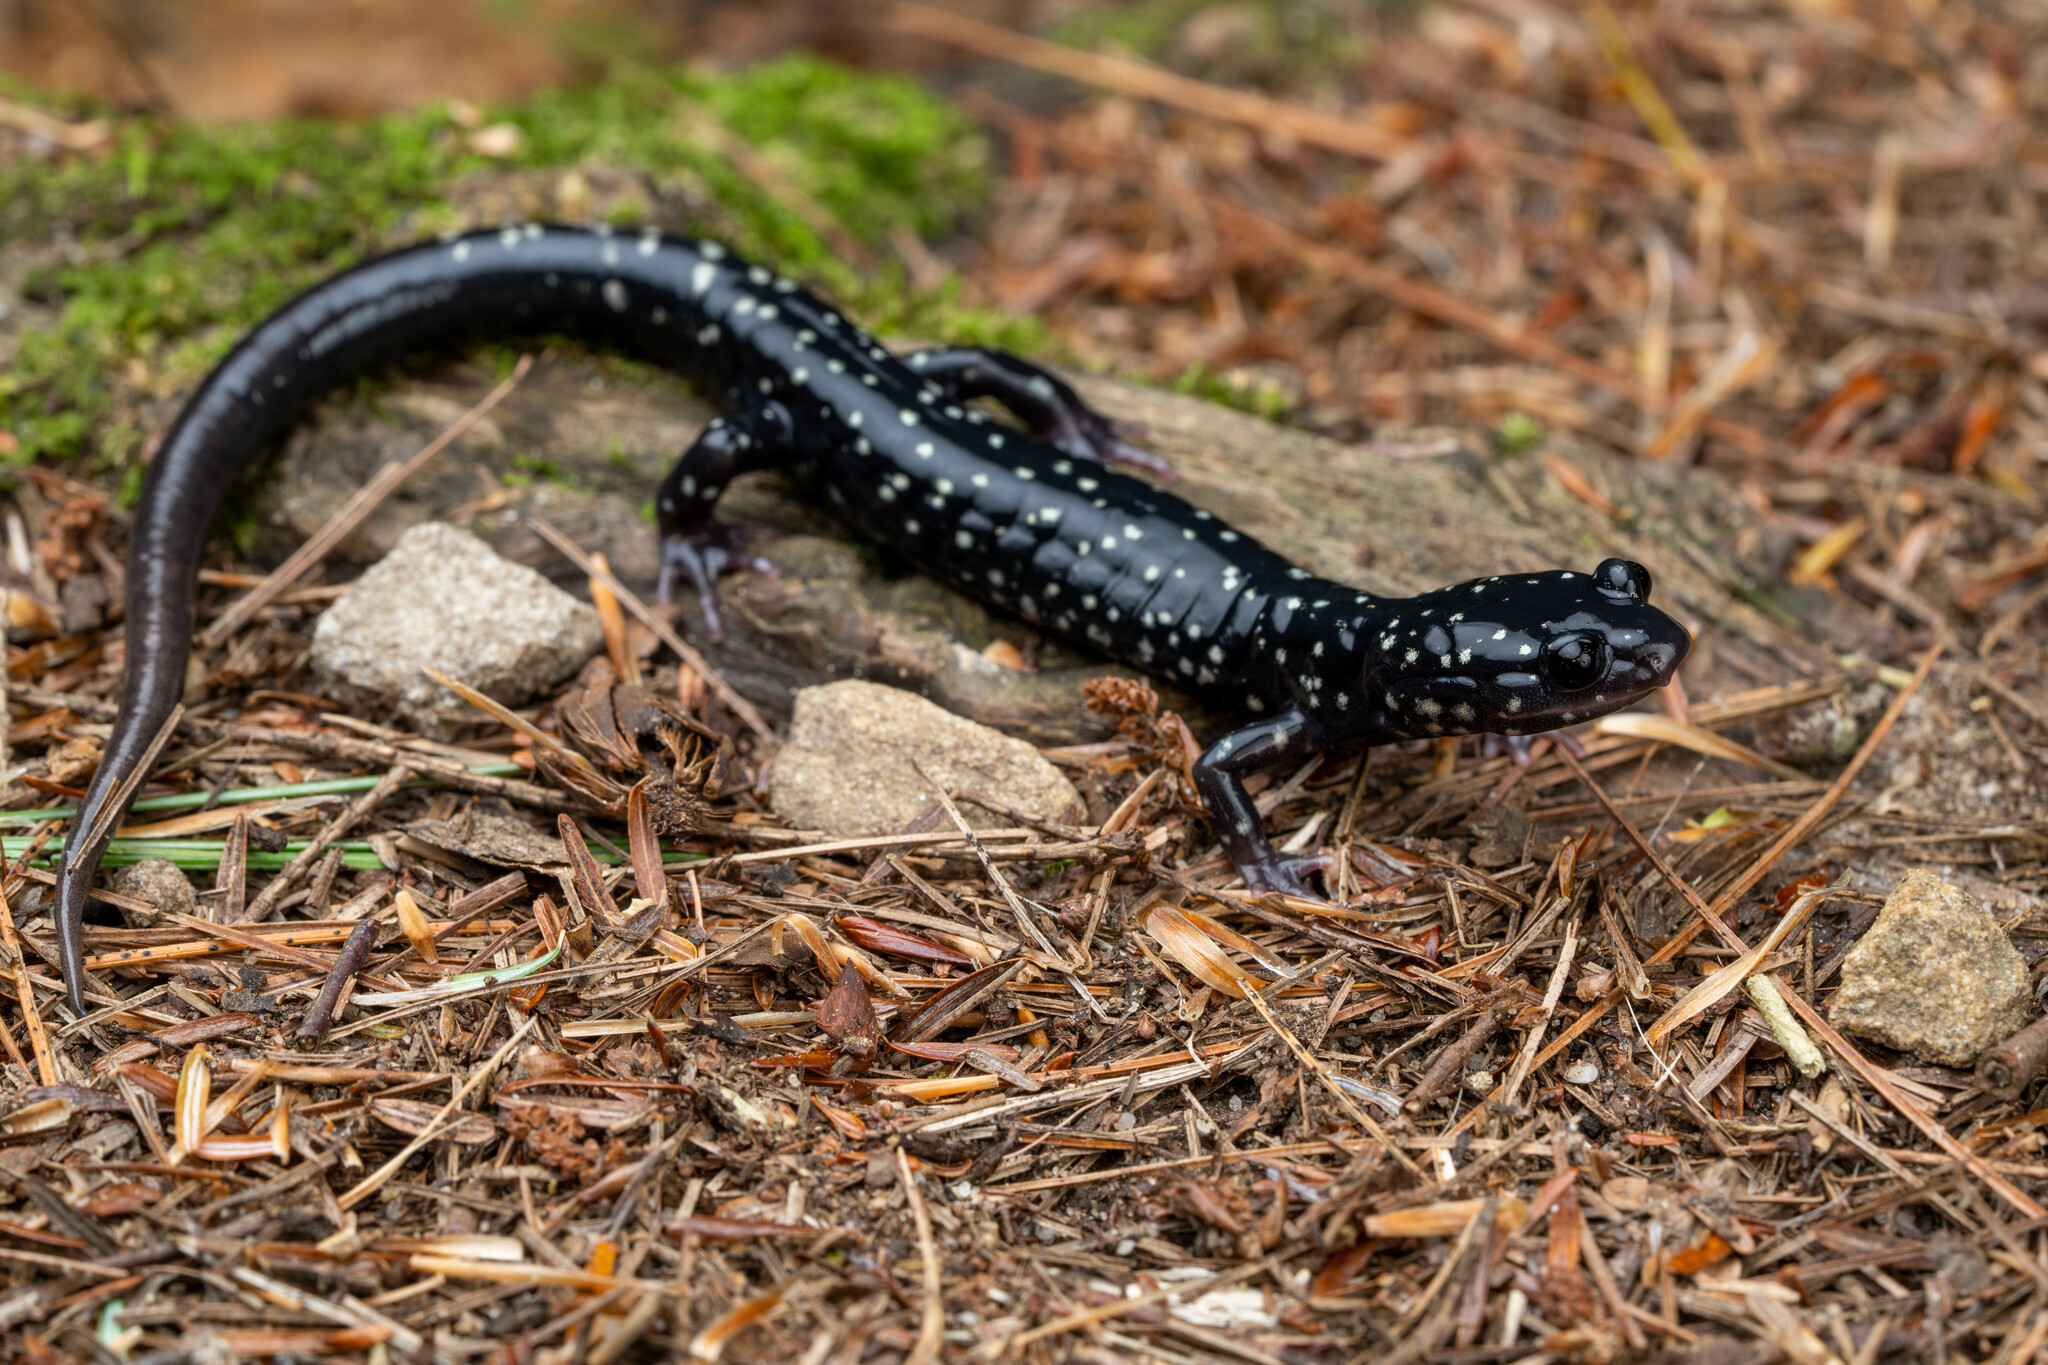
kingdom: Animalia
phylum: Chordata
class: Amphibia
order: Caudata
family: Plethodontidae
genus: Plethodon
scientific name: Plethodon glutinosus
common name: Northern slimy salamander
